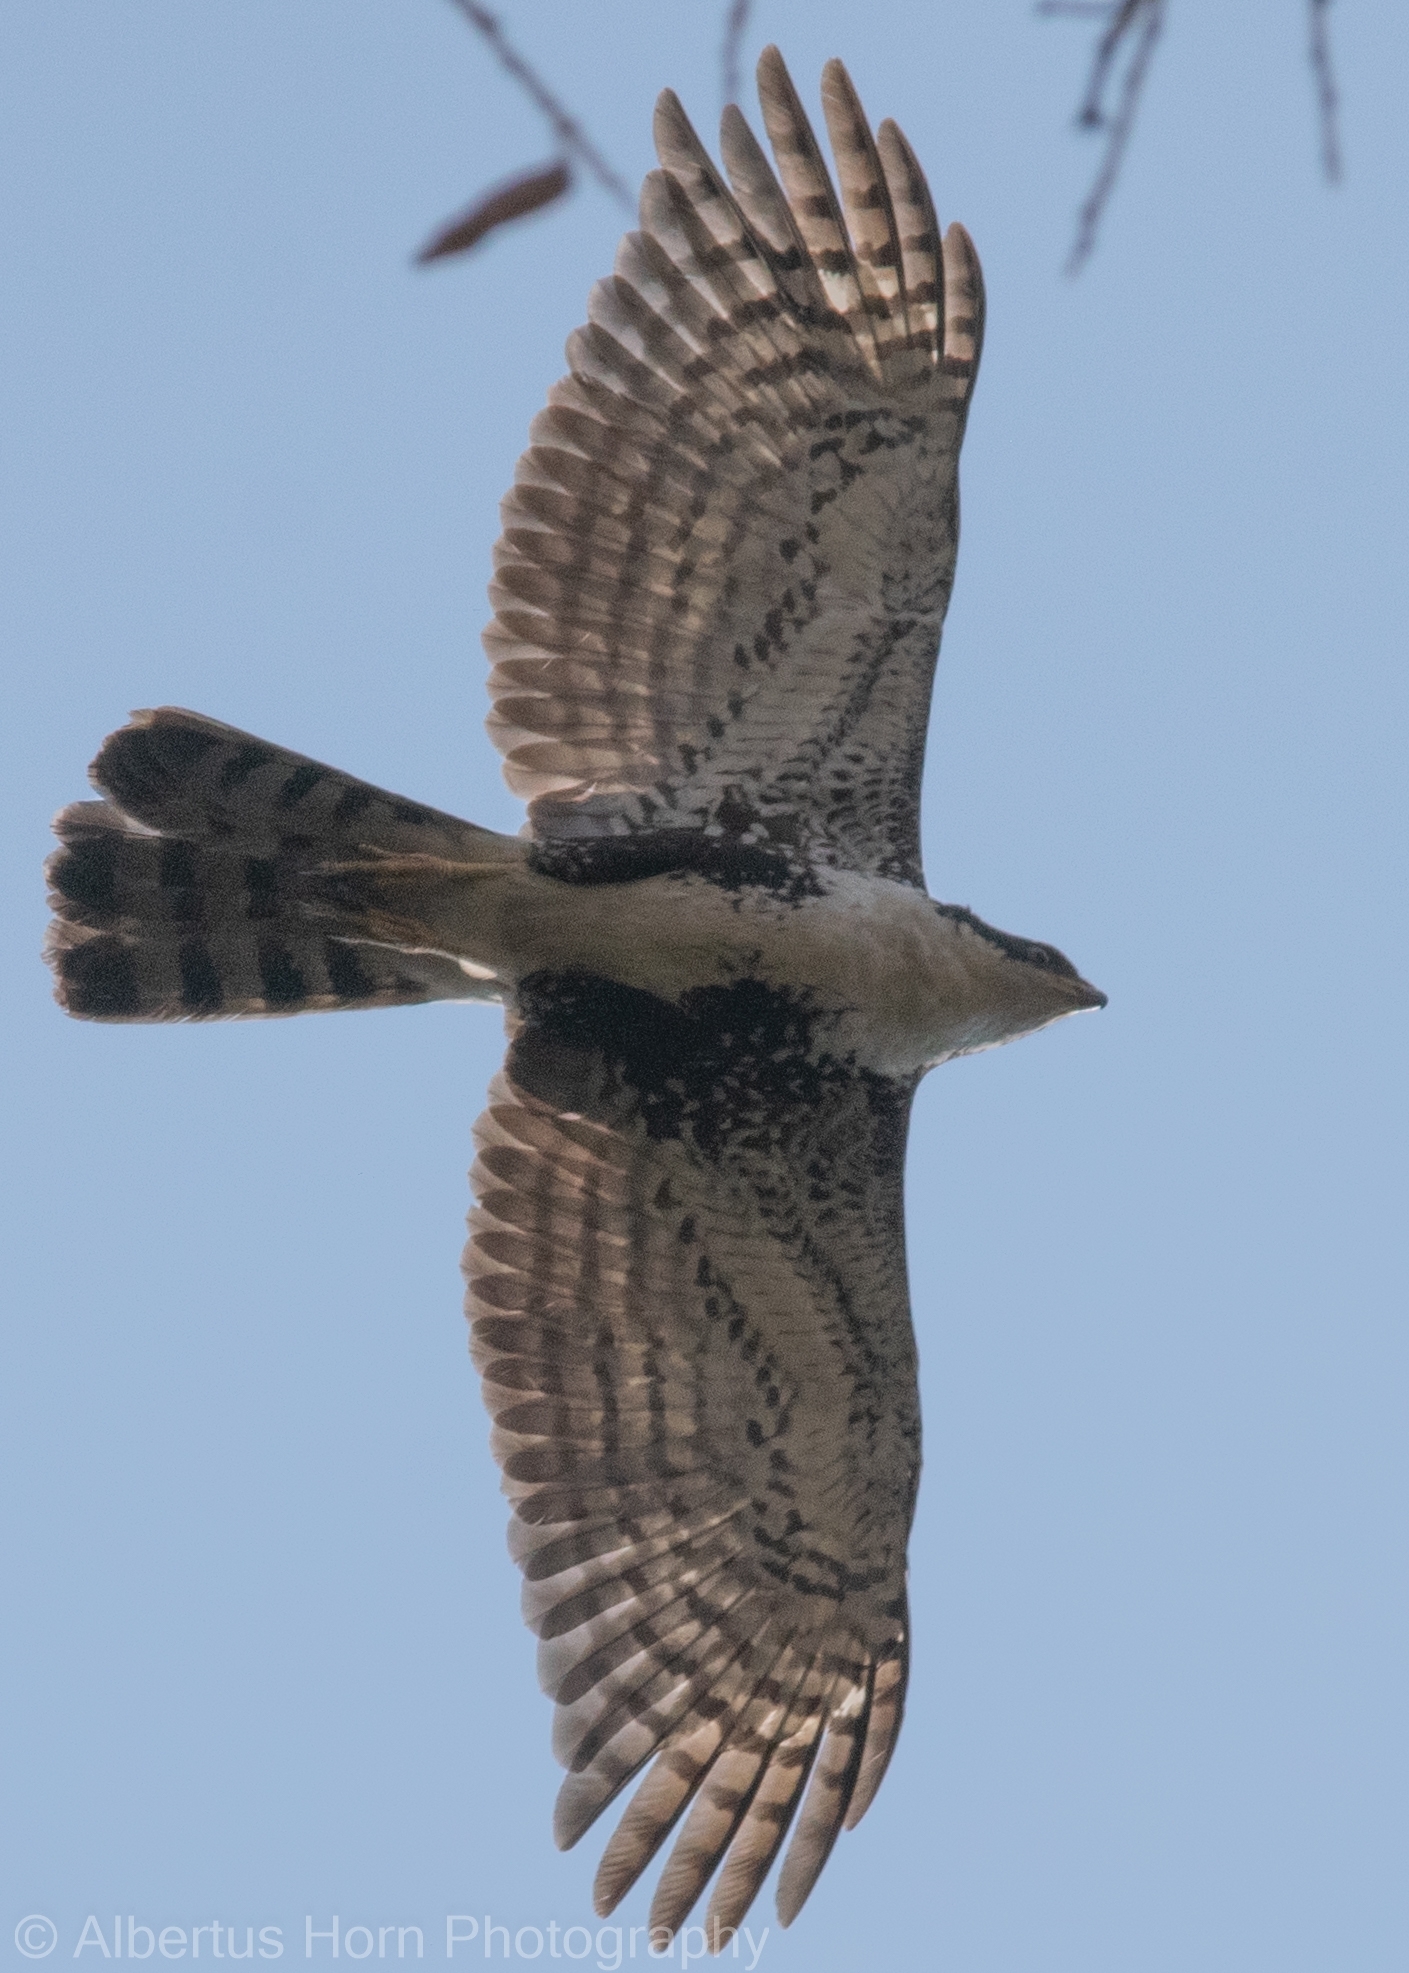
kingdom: Animalia
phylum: Chordata
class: Aves
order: Accipitriformes
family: Accipitridae
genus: Accipiter
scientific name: Accipiter melanoleucus
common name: Black sparrowhawk
